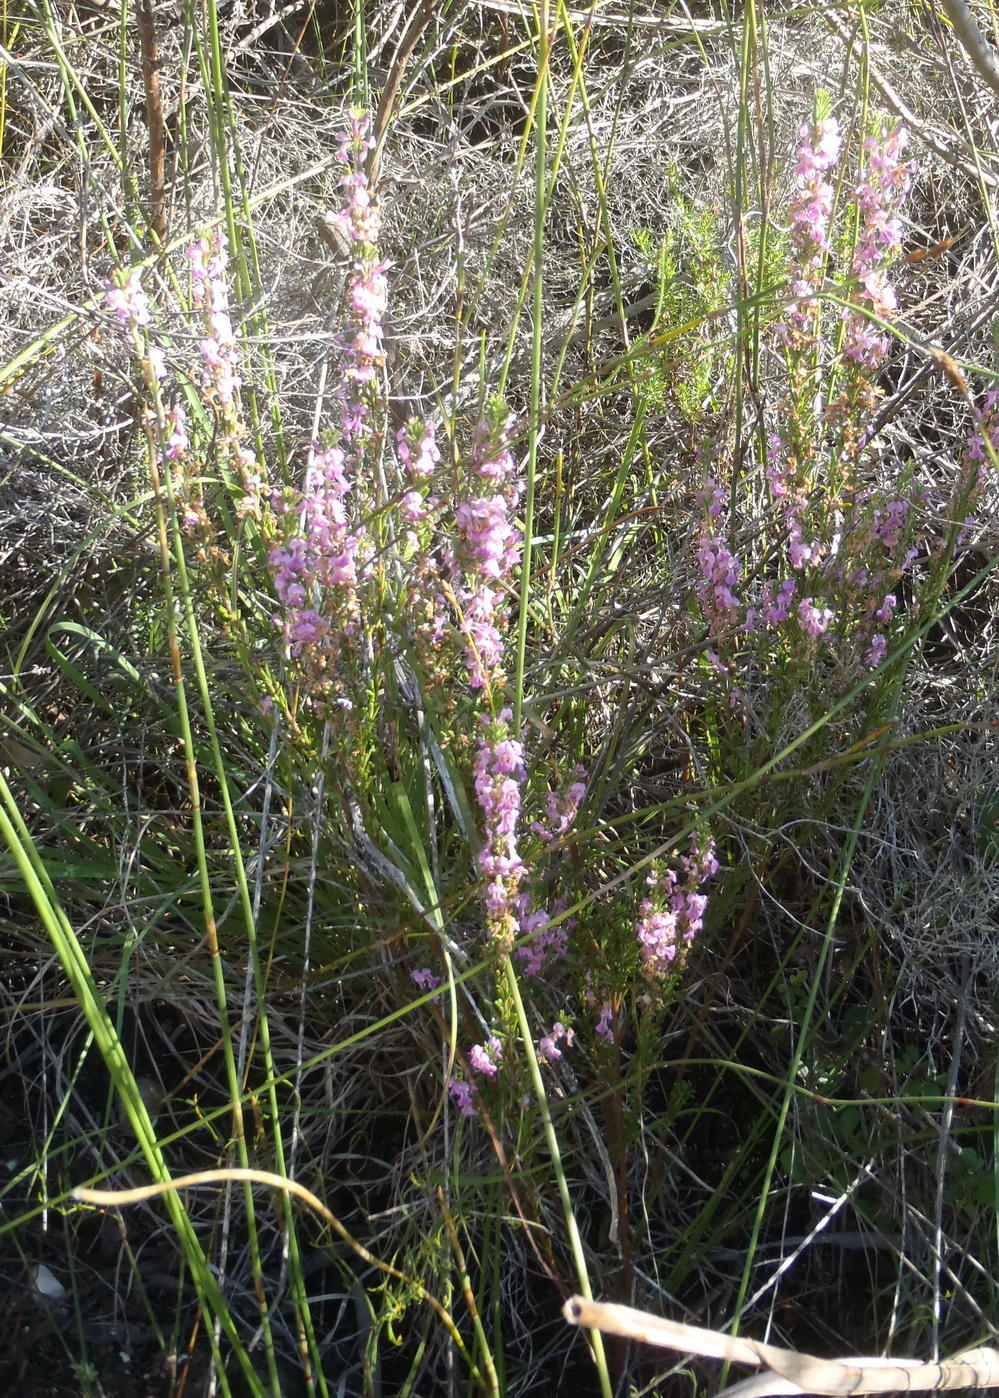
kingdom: Plantae
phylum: Tracheophyta
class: Magnoliopsida
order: Fabales
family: Fabaceae
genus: Indigofera
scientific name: Indigofera pappei
